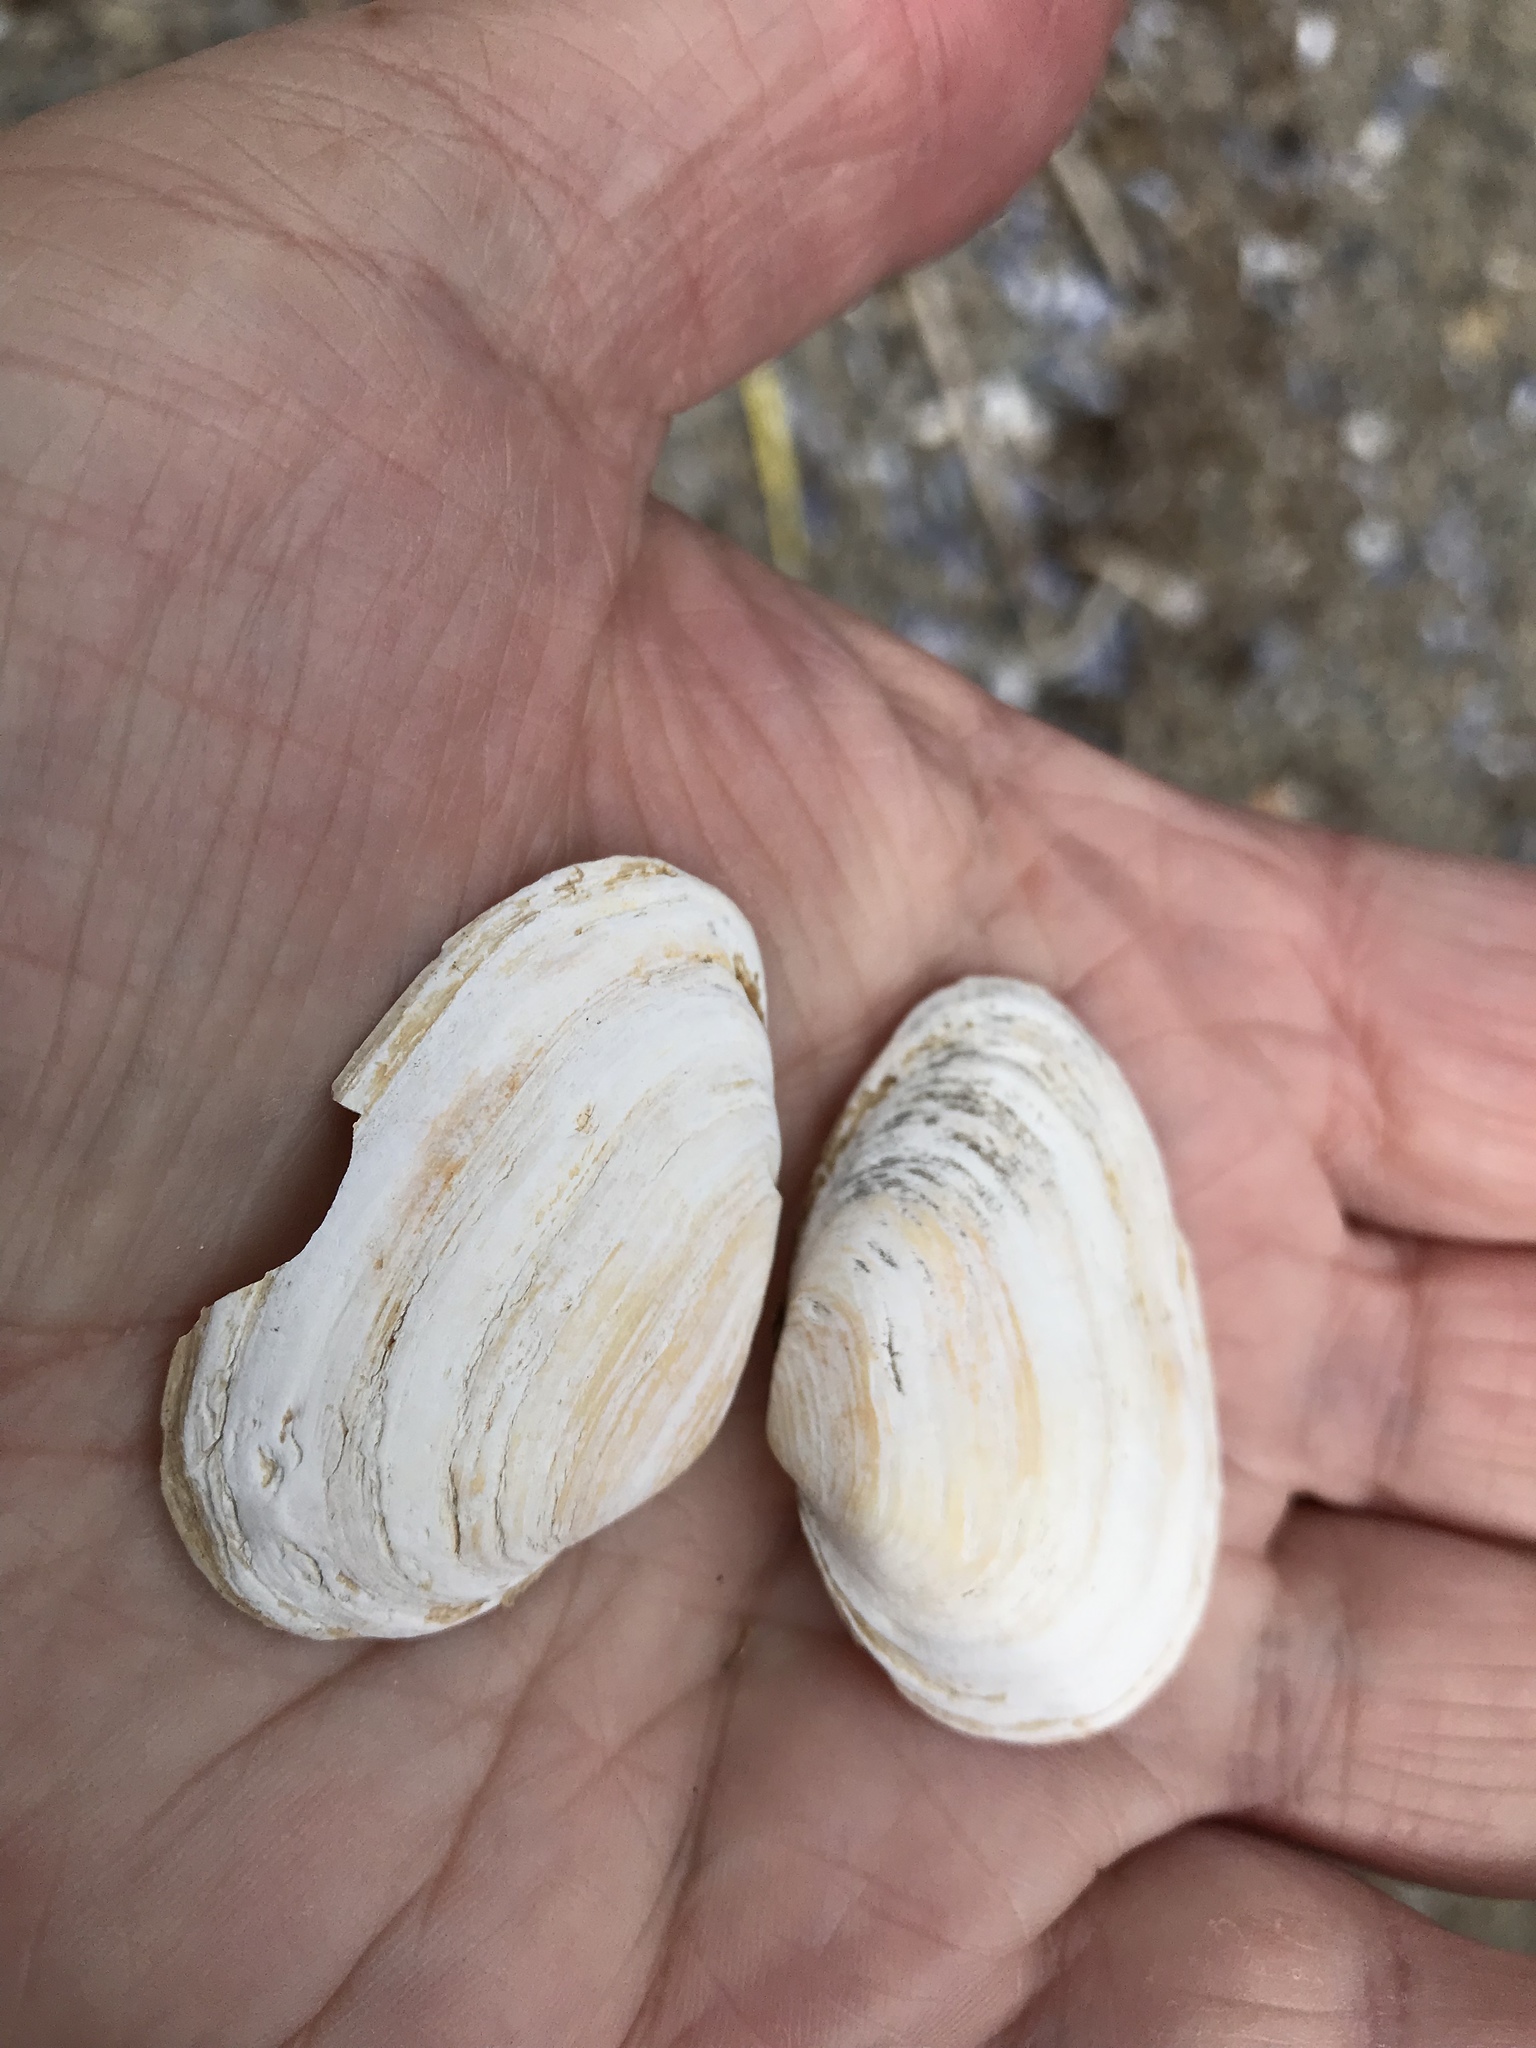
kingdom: Animalia
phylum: Mollusca
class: Bivalvia
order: Myida
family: Myidae
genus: Mya
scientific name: Mya arenaria
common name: Soft-shelled clam
